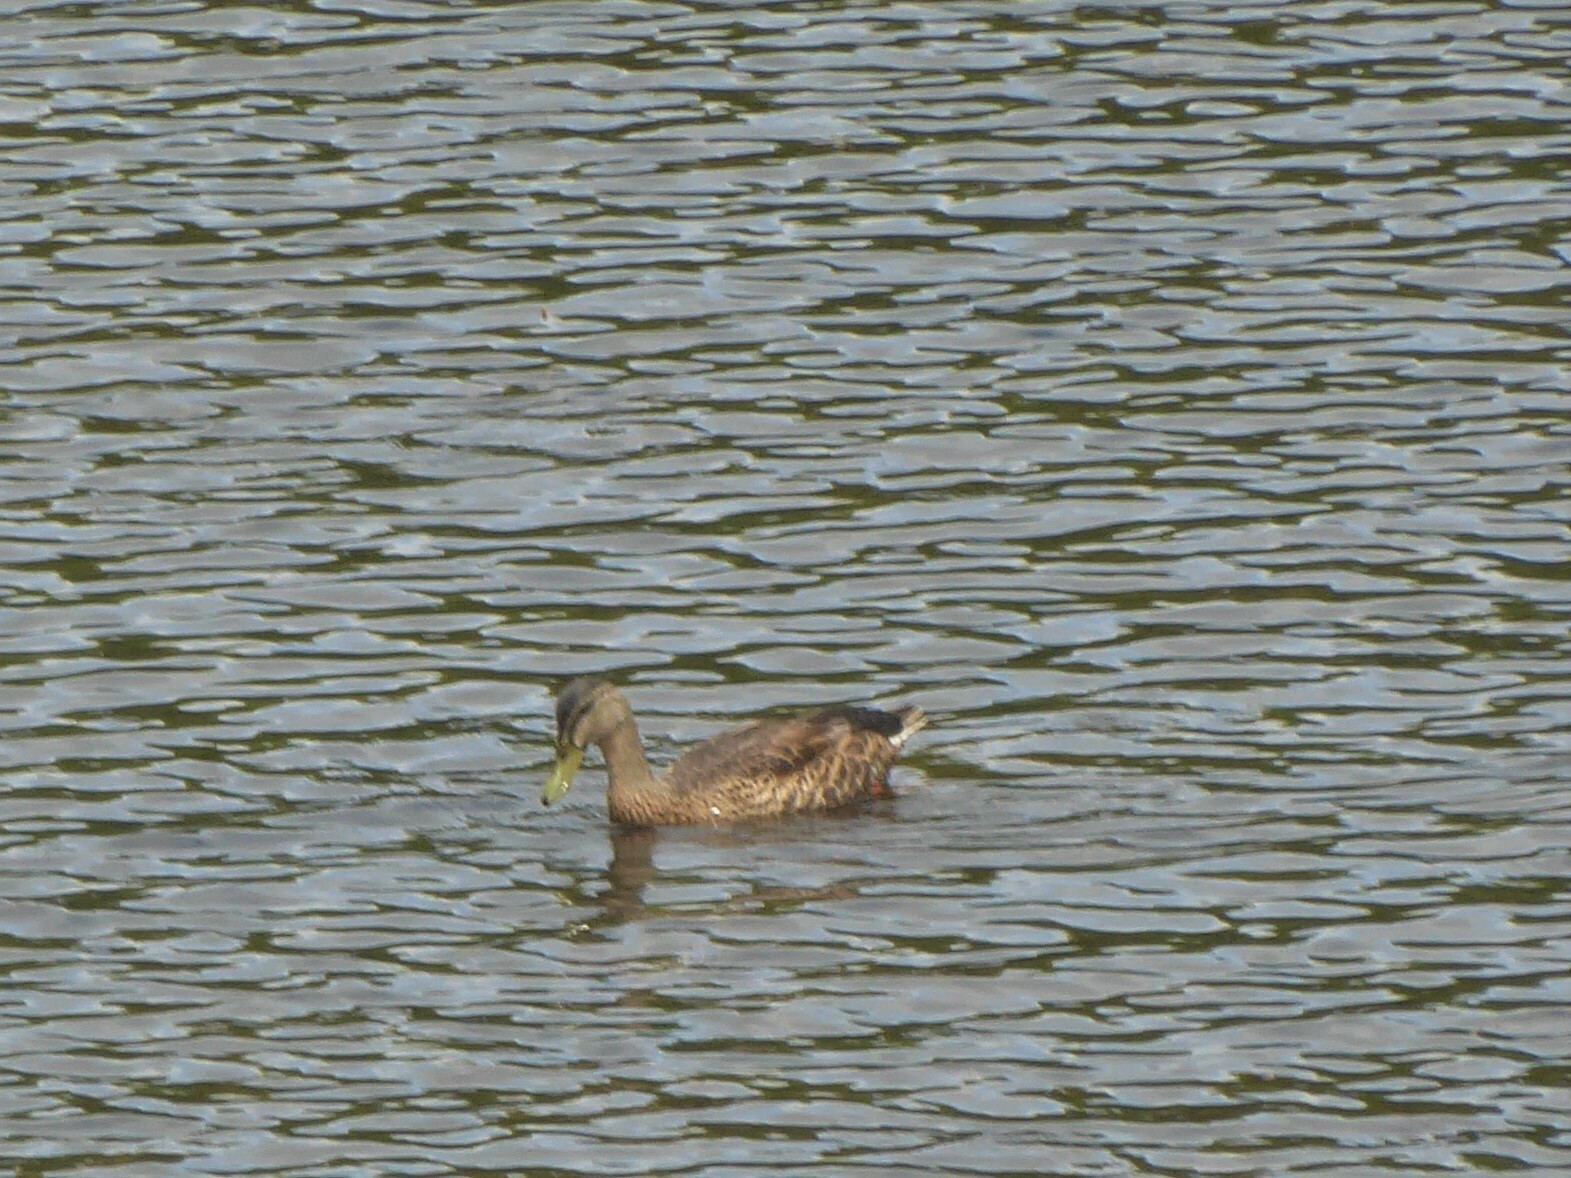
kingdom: Animalia
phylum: Chordata
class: Aves
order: Anseriformes
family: Anatidae
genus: Anas
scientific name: Anas
